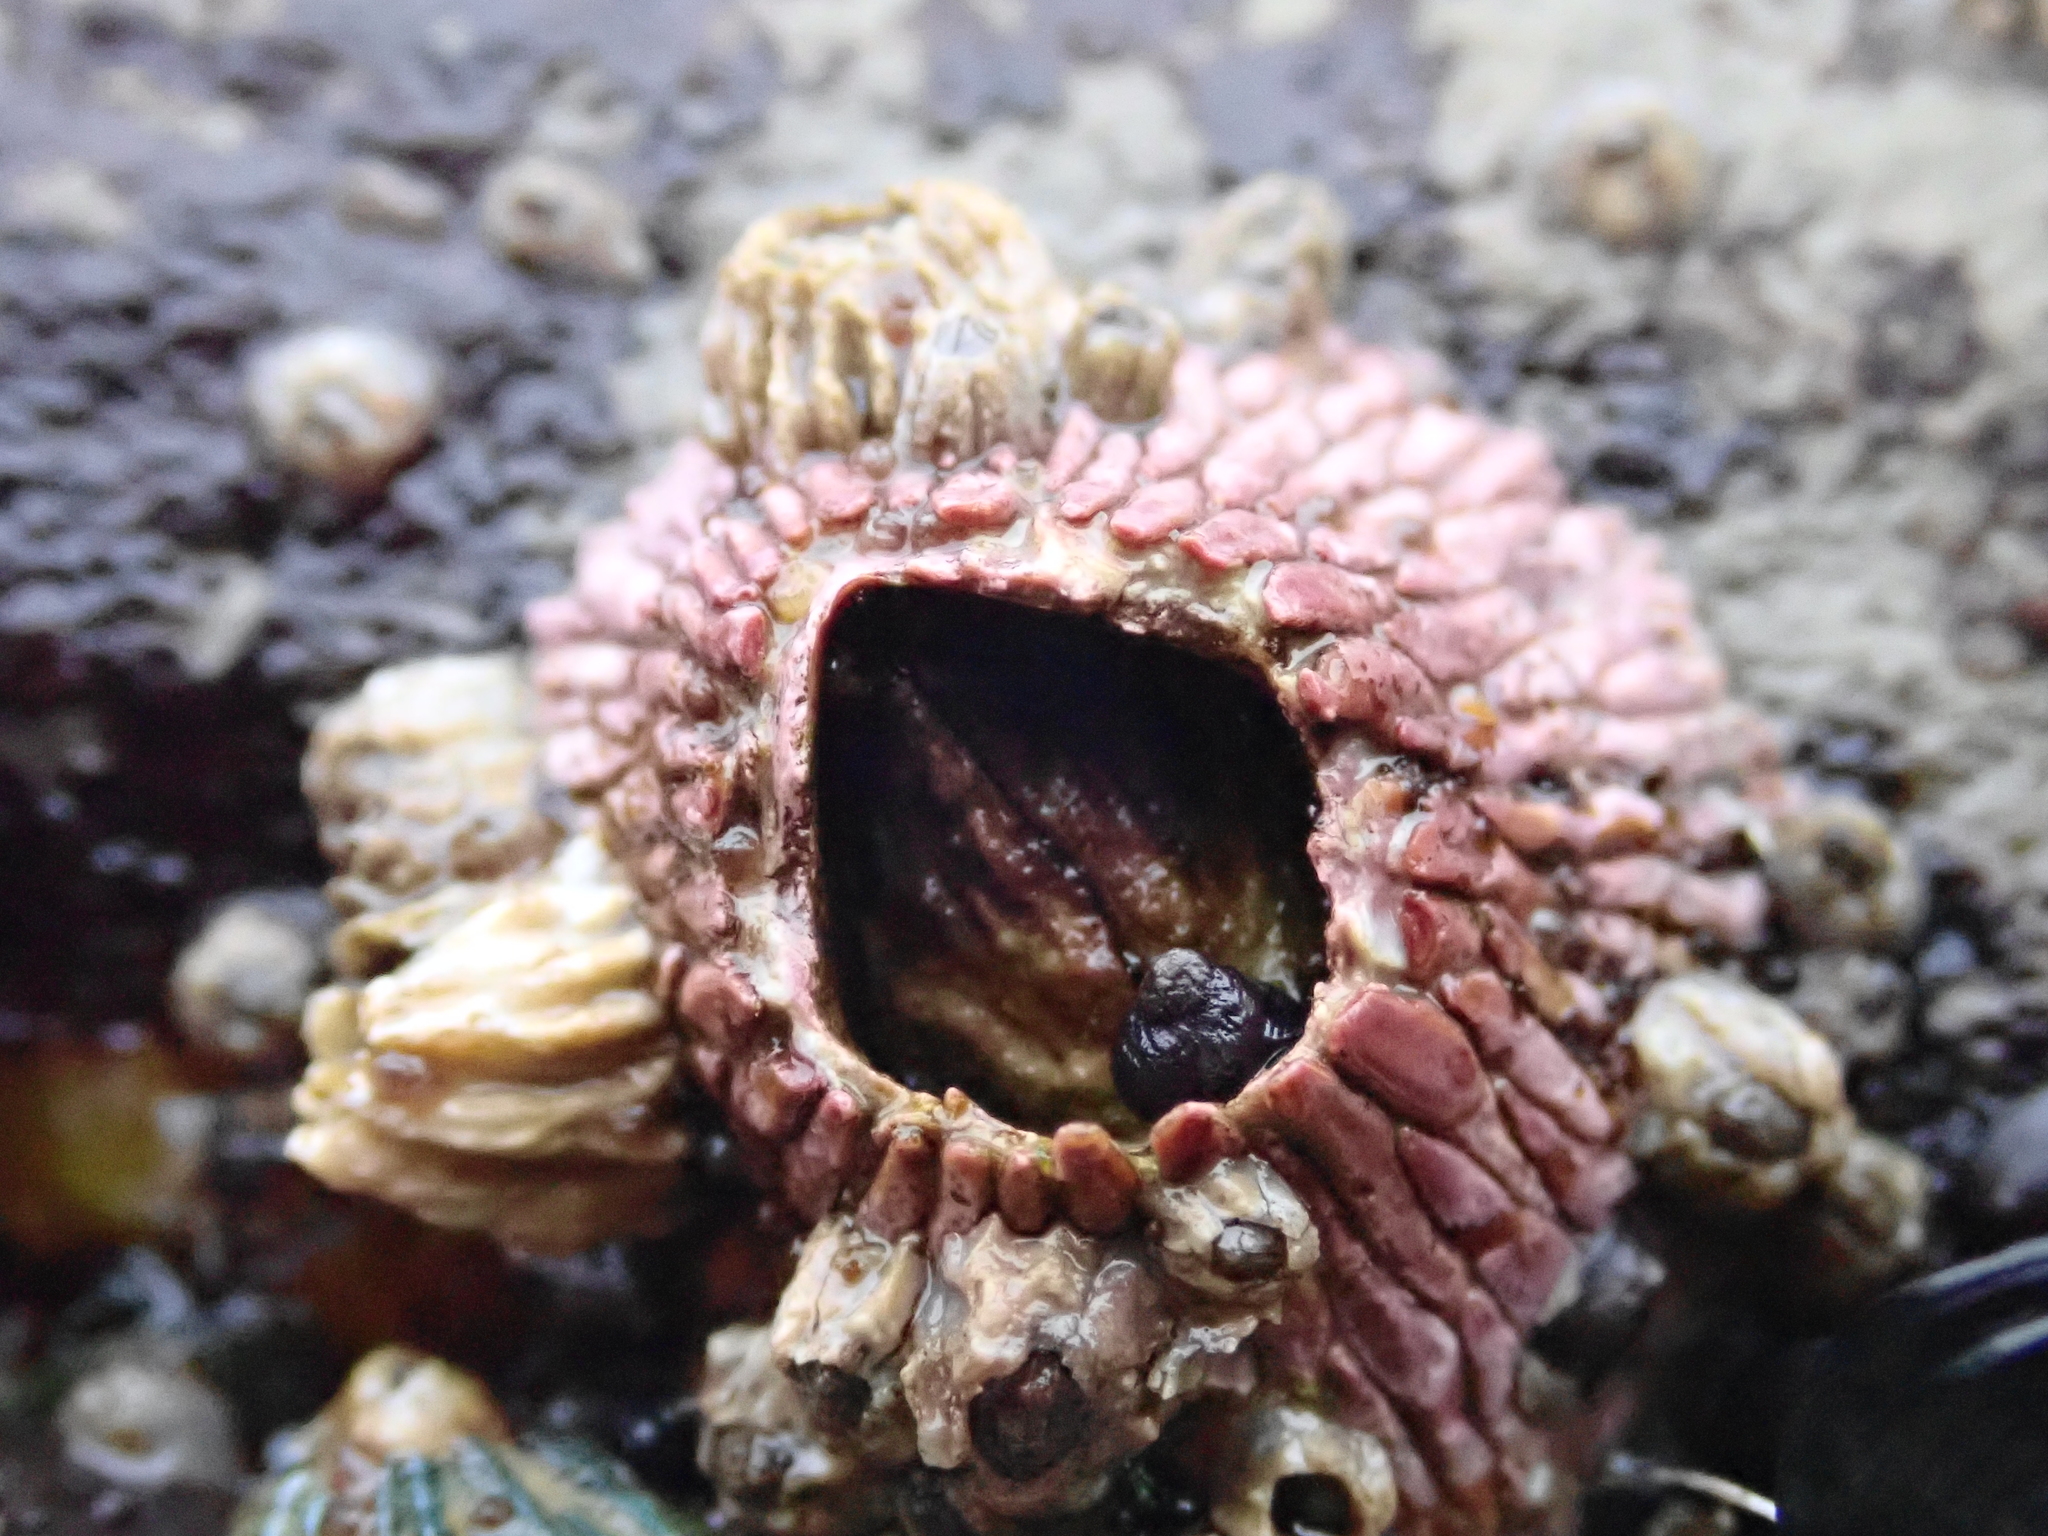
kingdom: Animalia
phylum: Arthropoda
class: Maxillopoda
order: Sessilia
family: Tetraclitidae
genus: Tetraclita
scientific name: Tetraclita rubescens
